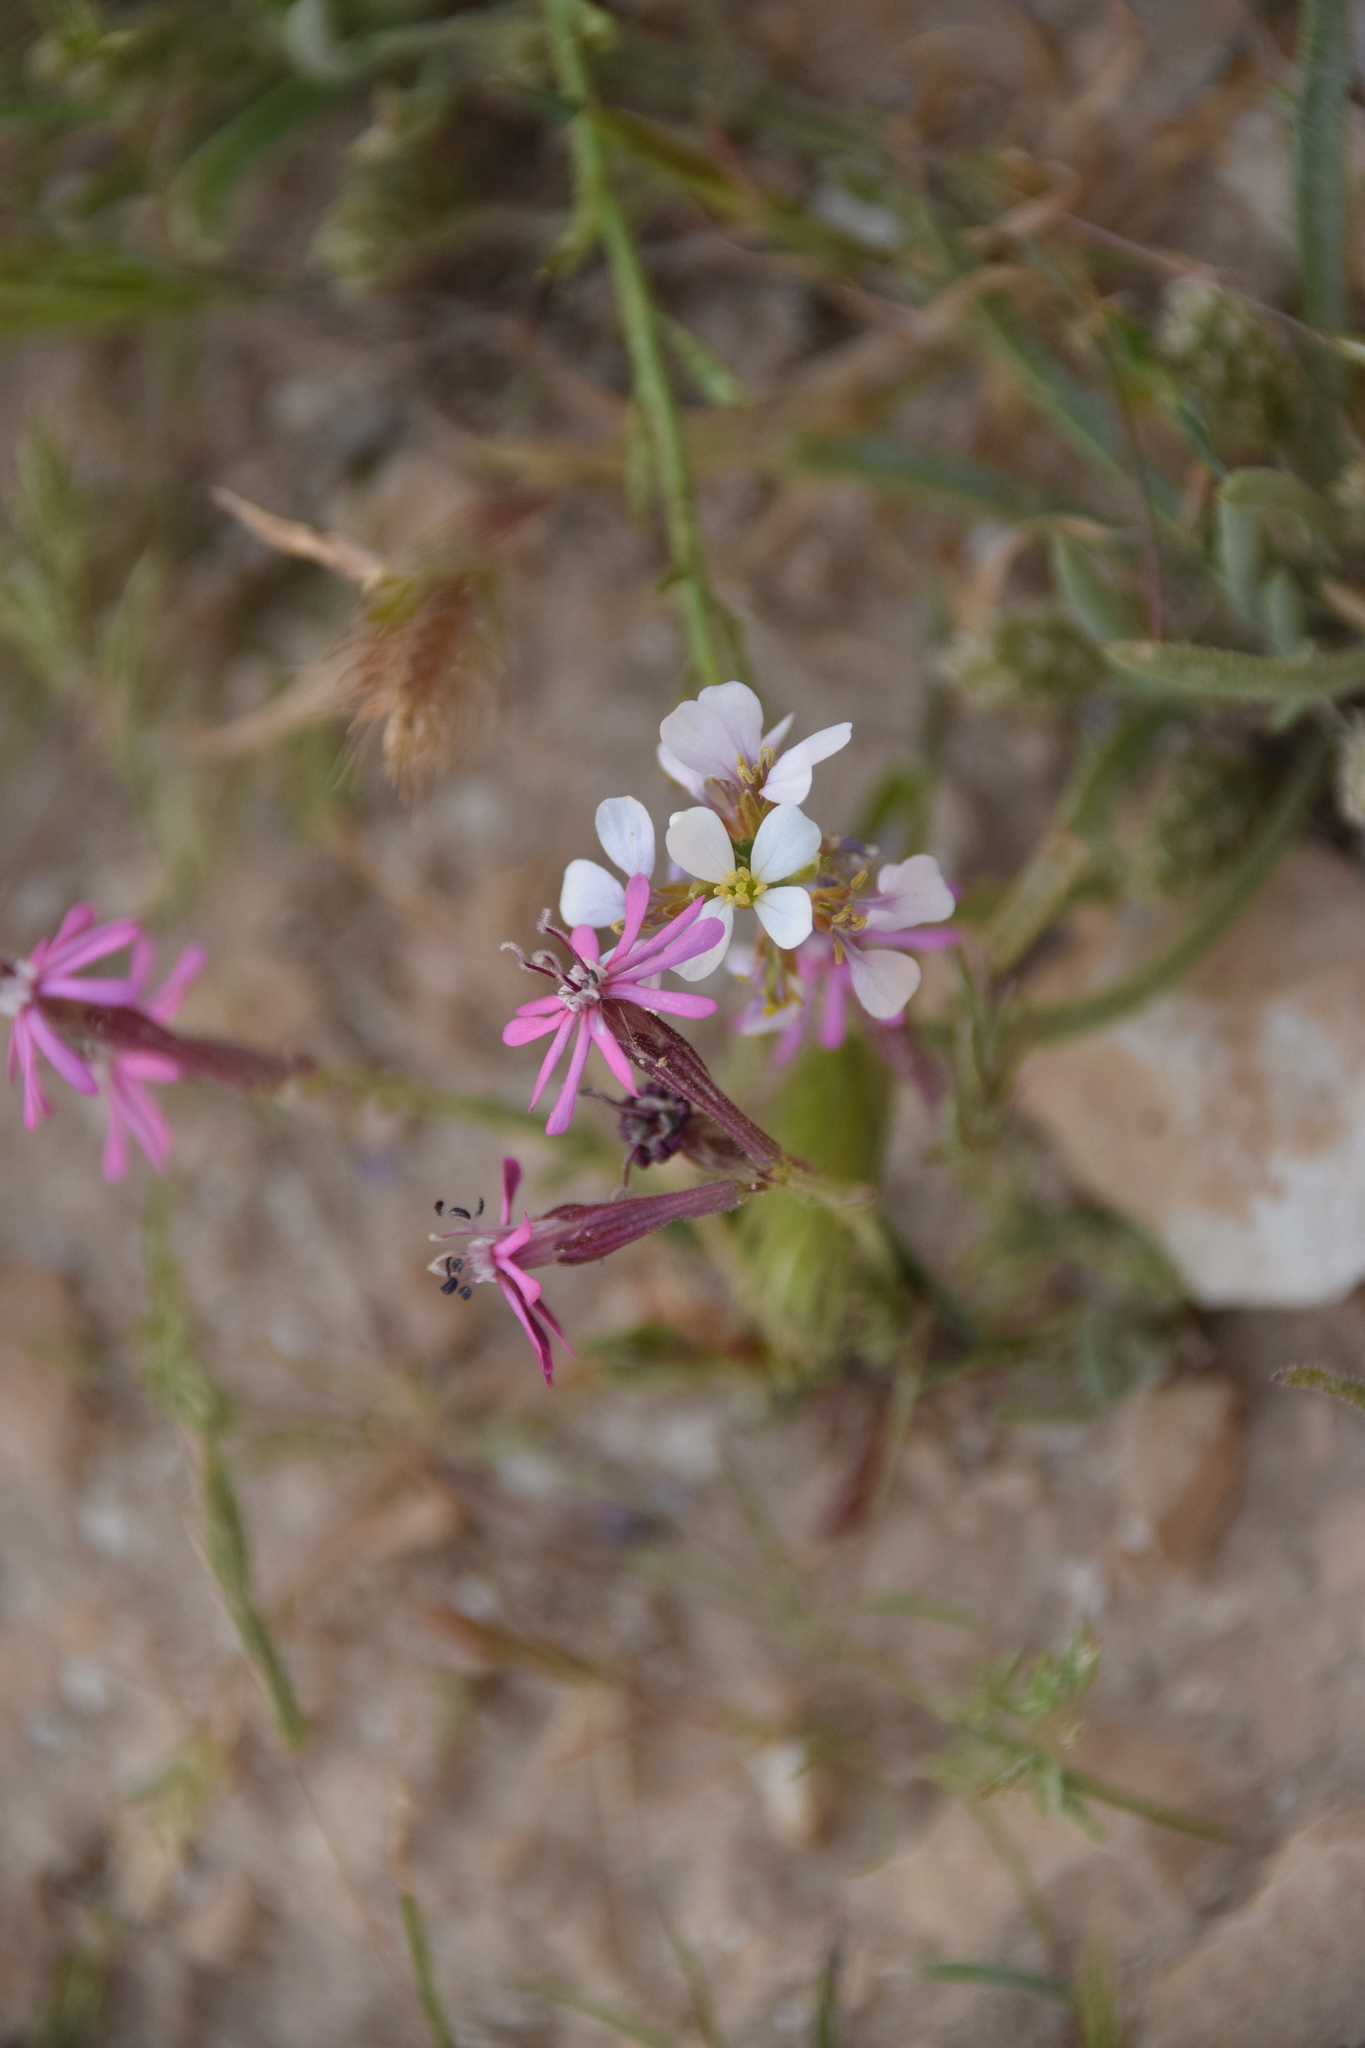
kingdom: Plantae
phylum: Tracheophyta
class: Magnoliopsida
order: Caryophyllales
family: Caryophyllaceae
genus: Silene
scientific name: Silene colorata
